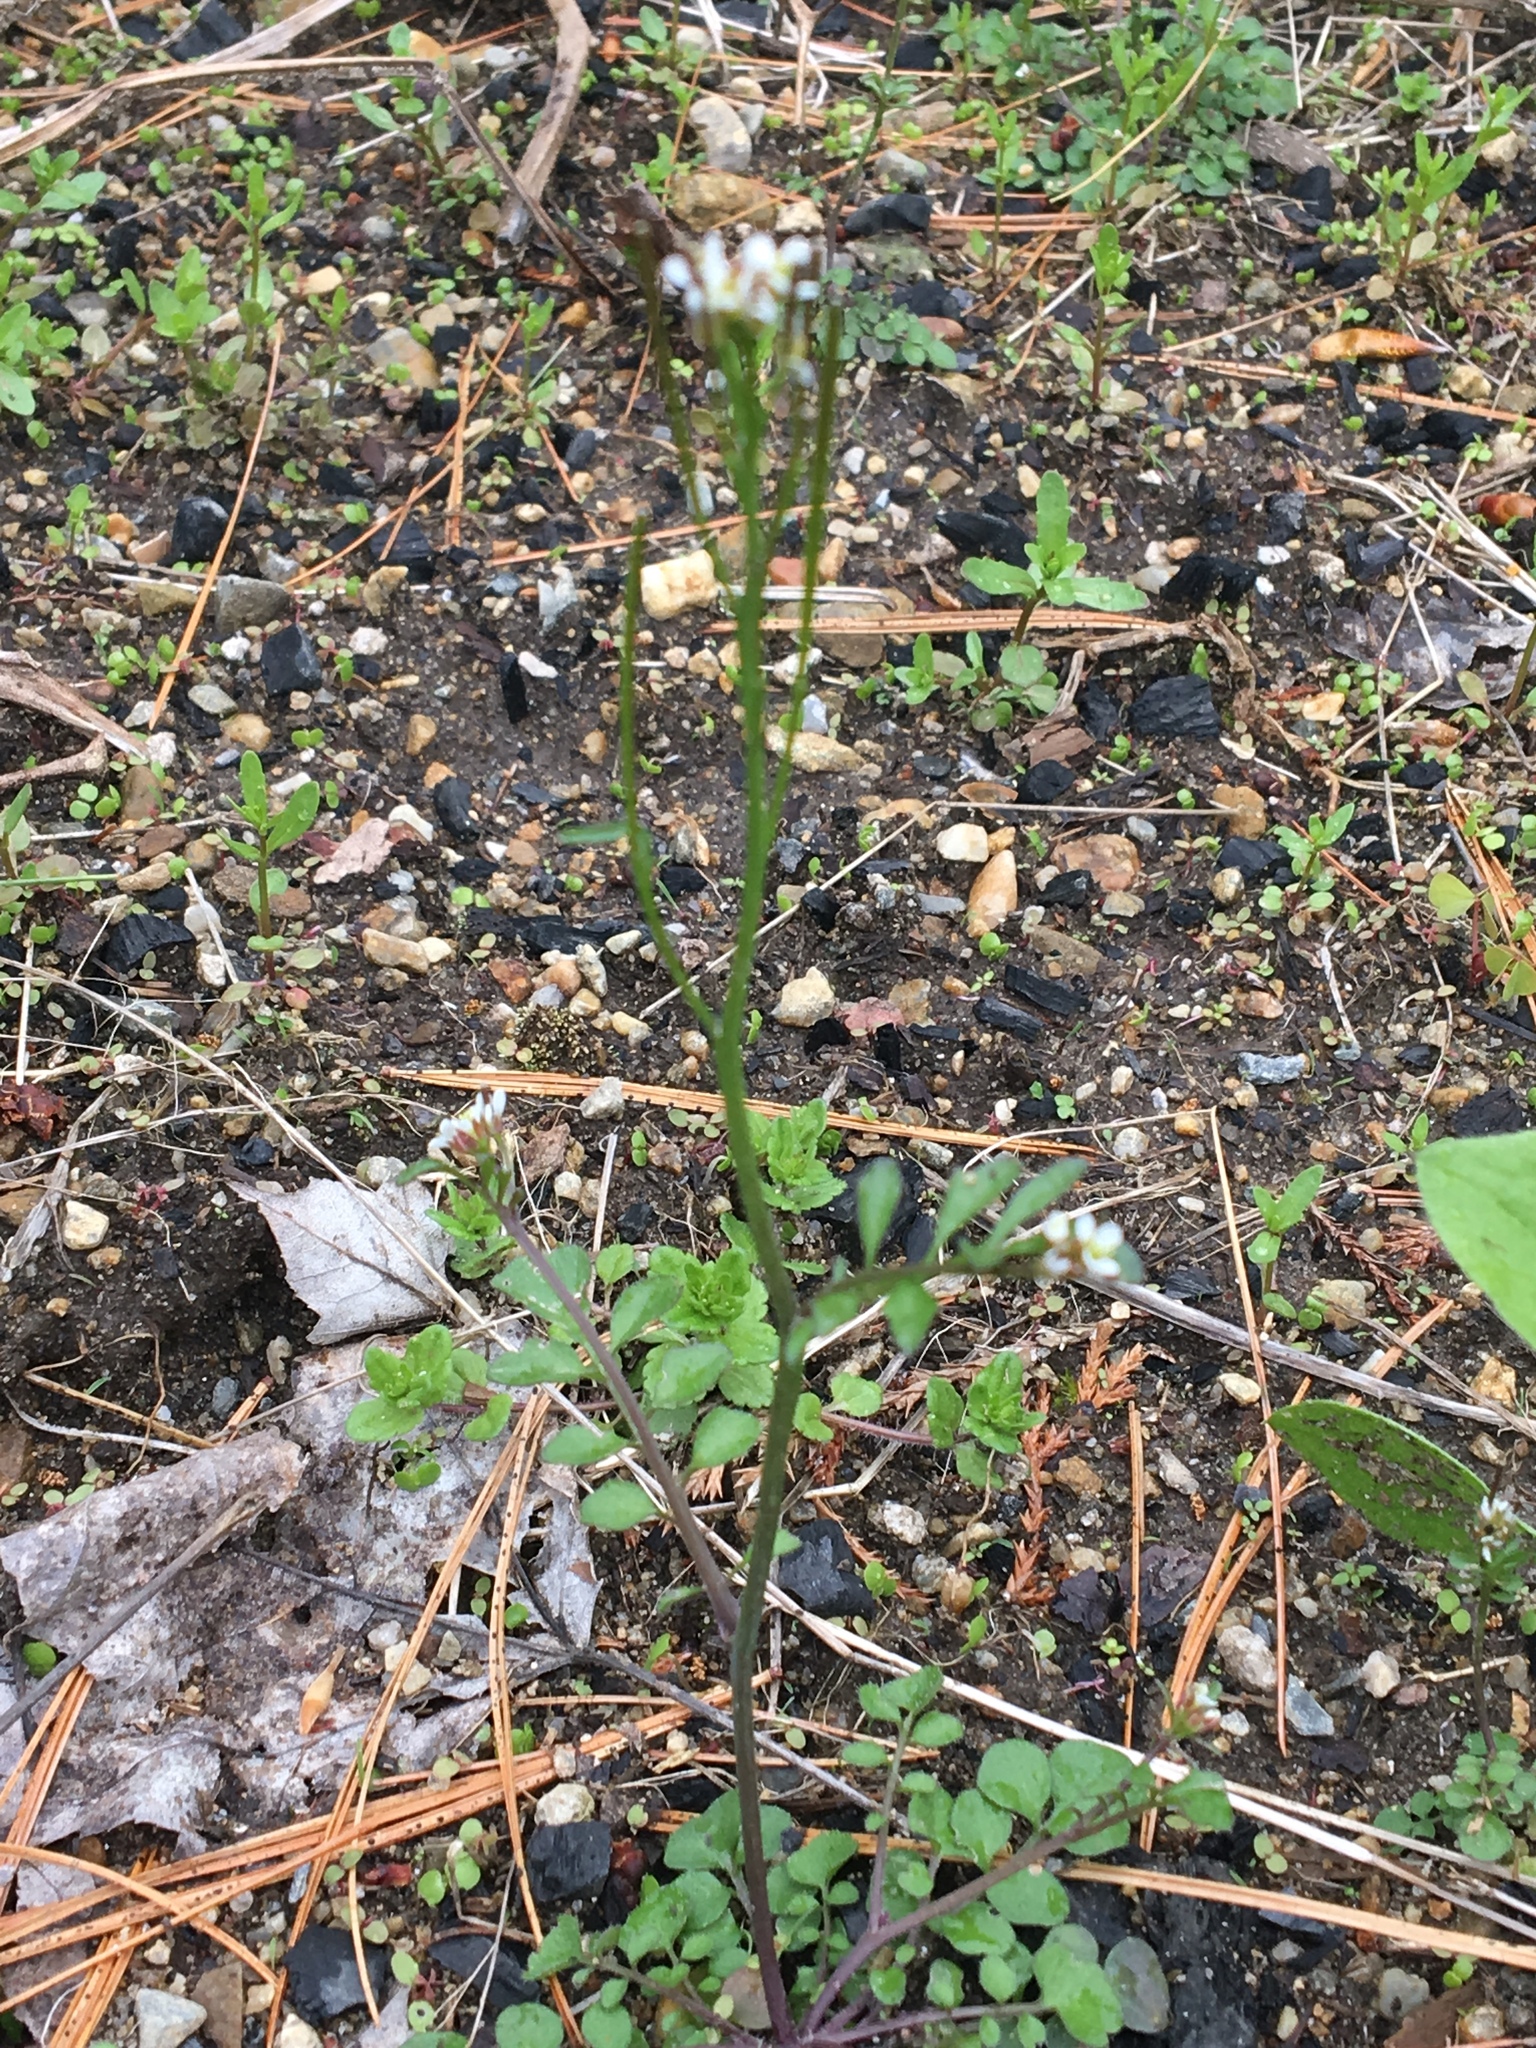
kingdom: Plantae
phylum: Tracheophyta
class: Magnoliopsida
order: Brassicales
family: Brassicaceae
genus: Cardamine
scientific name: Cardamine hirsuta
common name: Hairy bittercress
